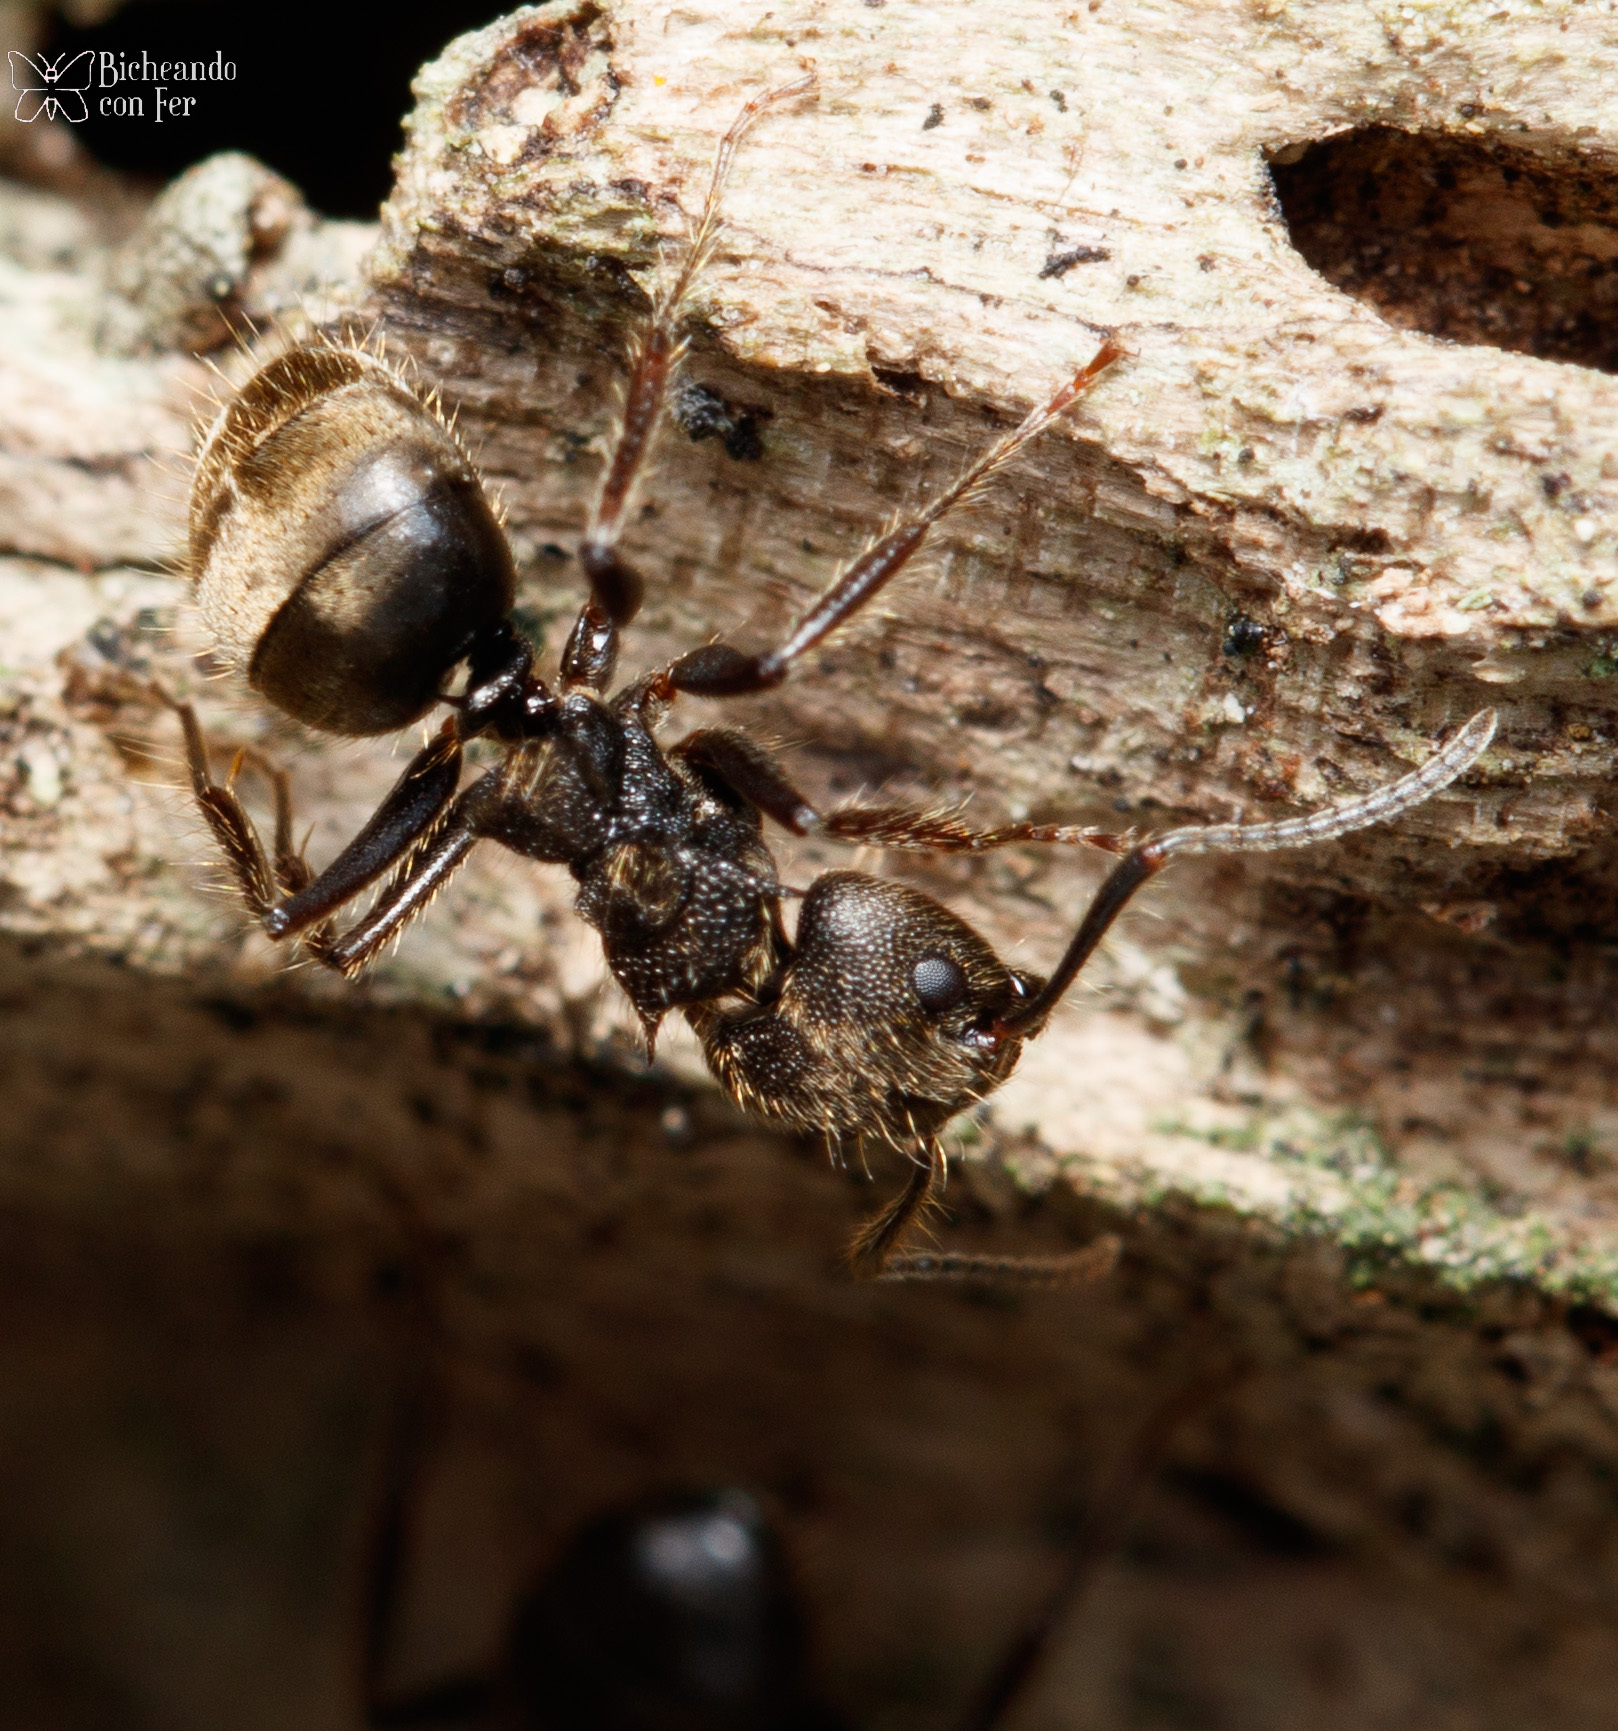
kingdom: Animalia
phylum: Arthropoda
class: Insecta
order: Hymenoptera
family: Formicidae
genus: Dolichoderus
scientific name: Dolichoderus bispinosus
